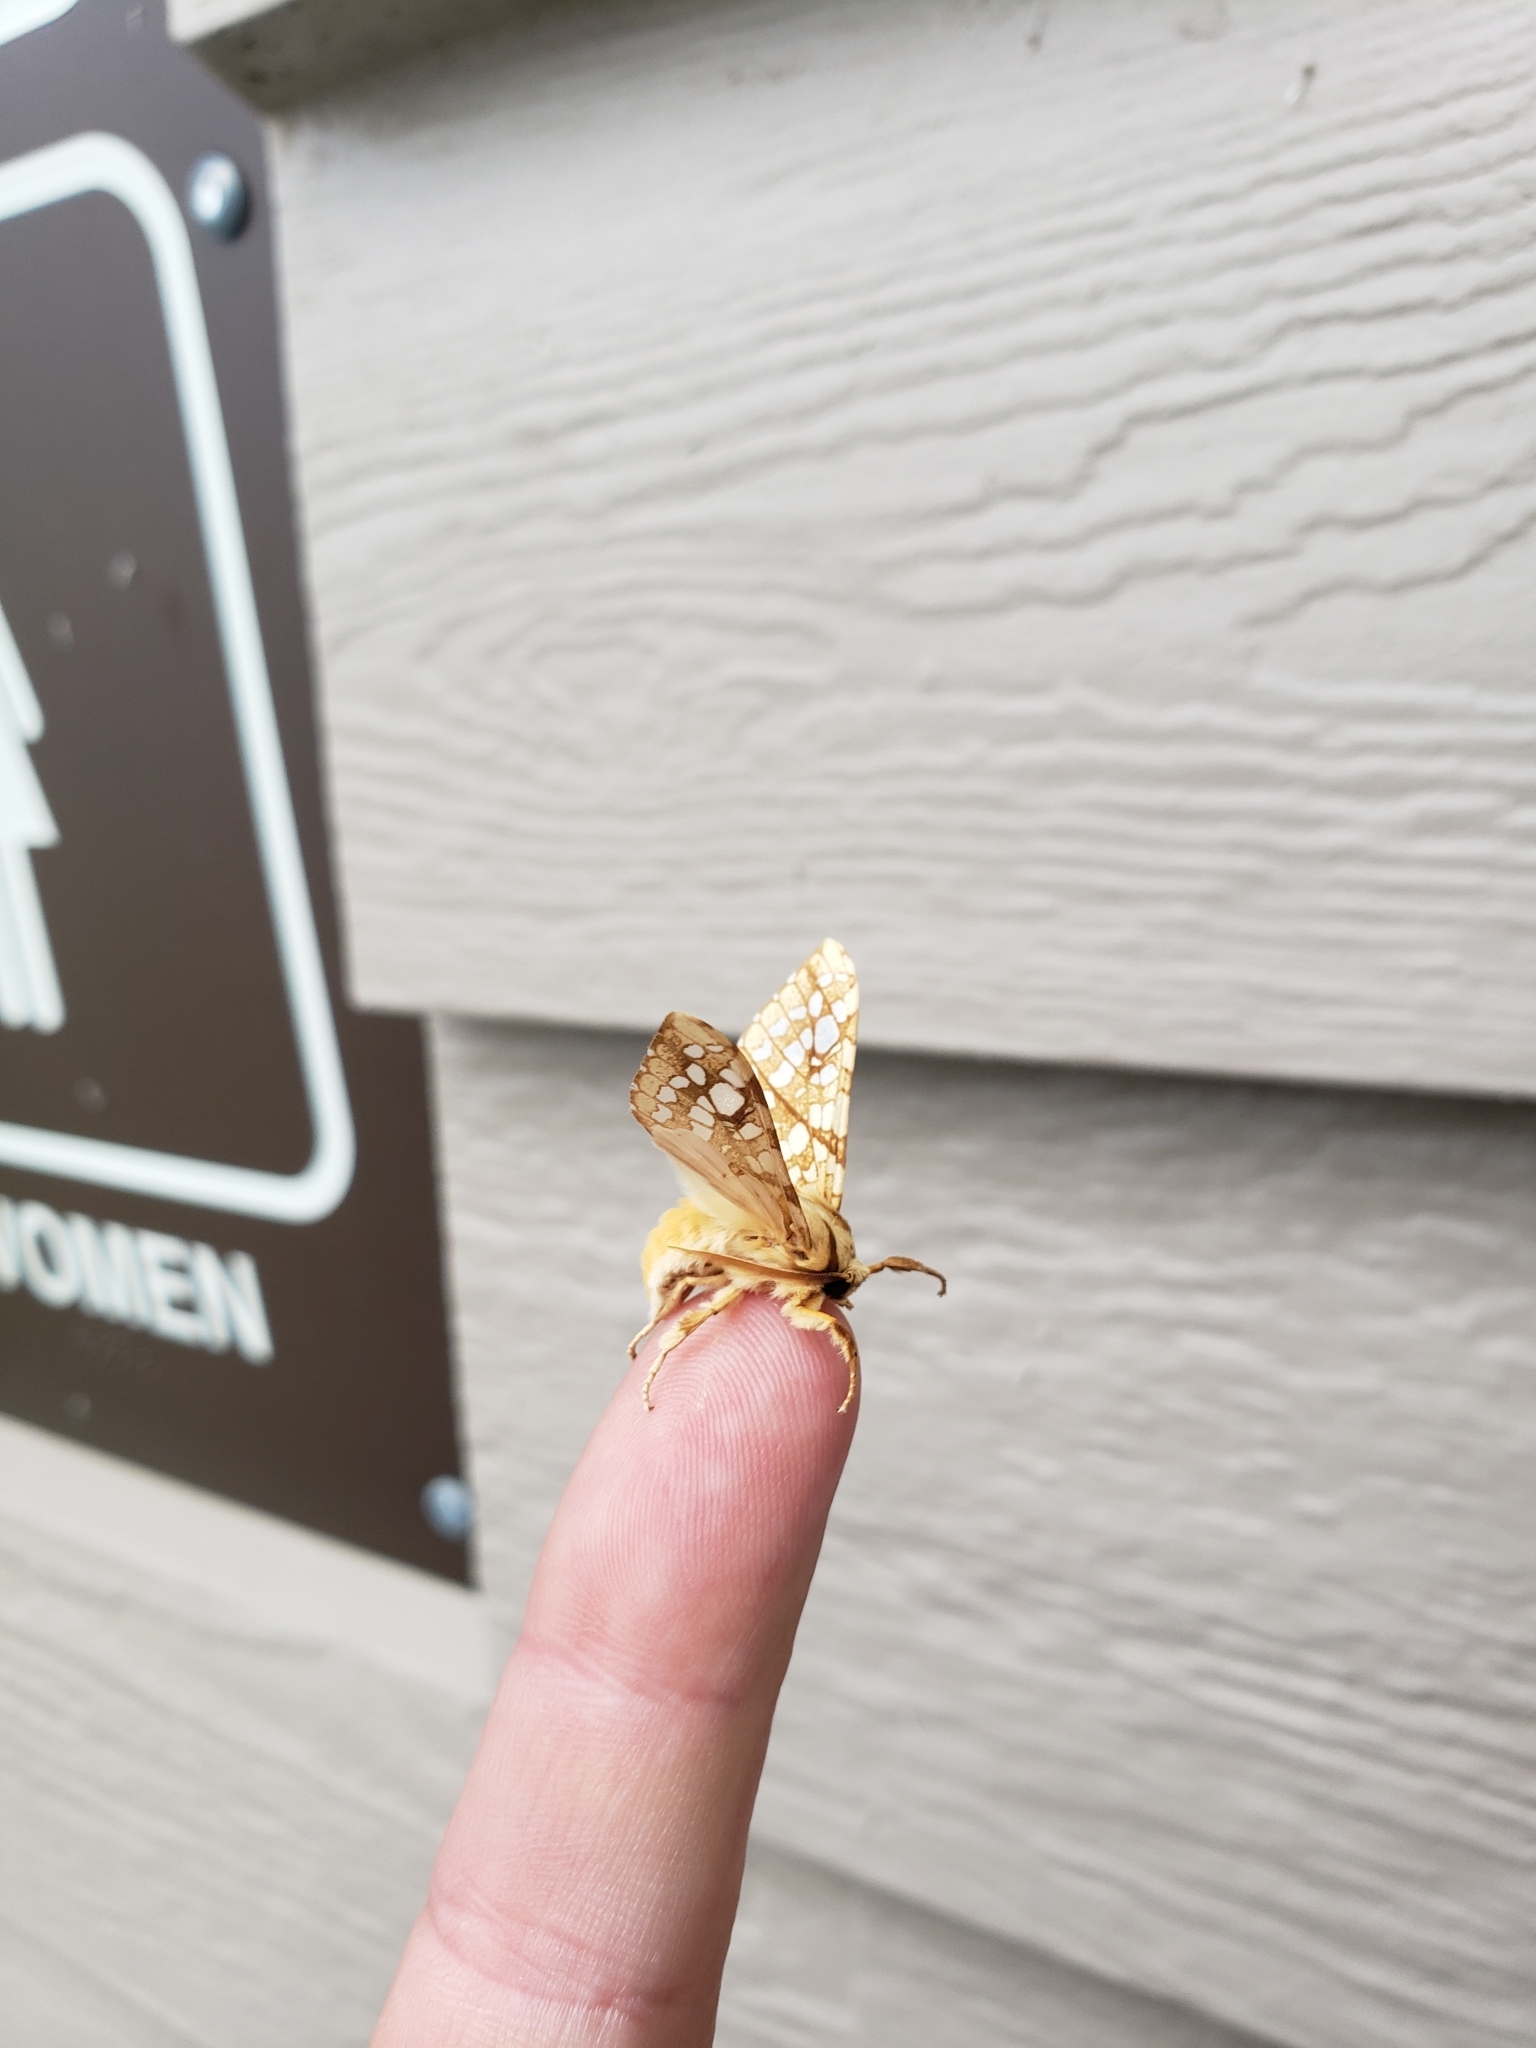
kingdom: Animalia
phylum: Arthropoda
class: Insecta
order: Lepidoptera
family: Erebidae
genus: Lophocampa
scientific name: Lophocampa caryae
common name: Hickory tussock moth
